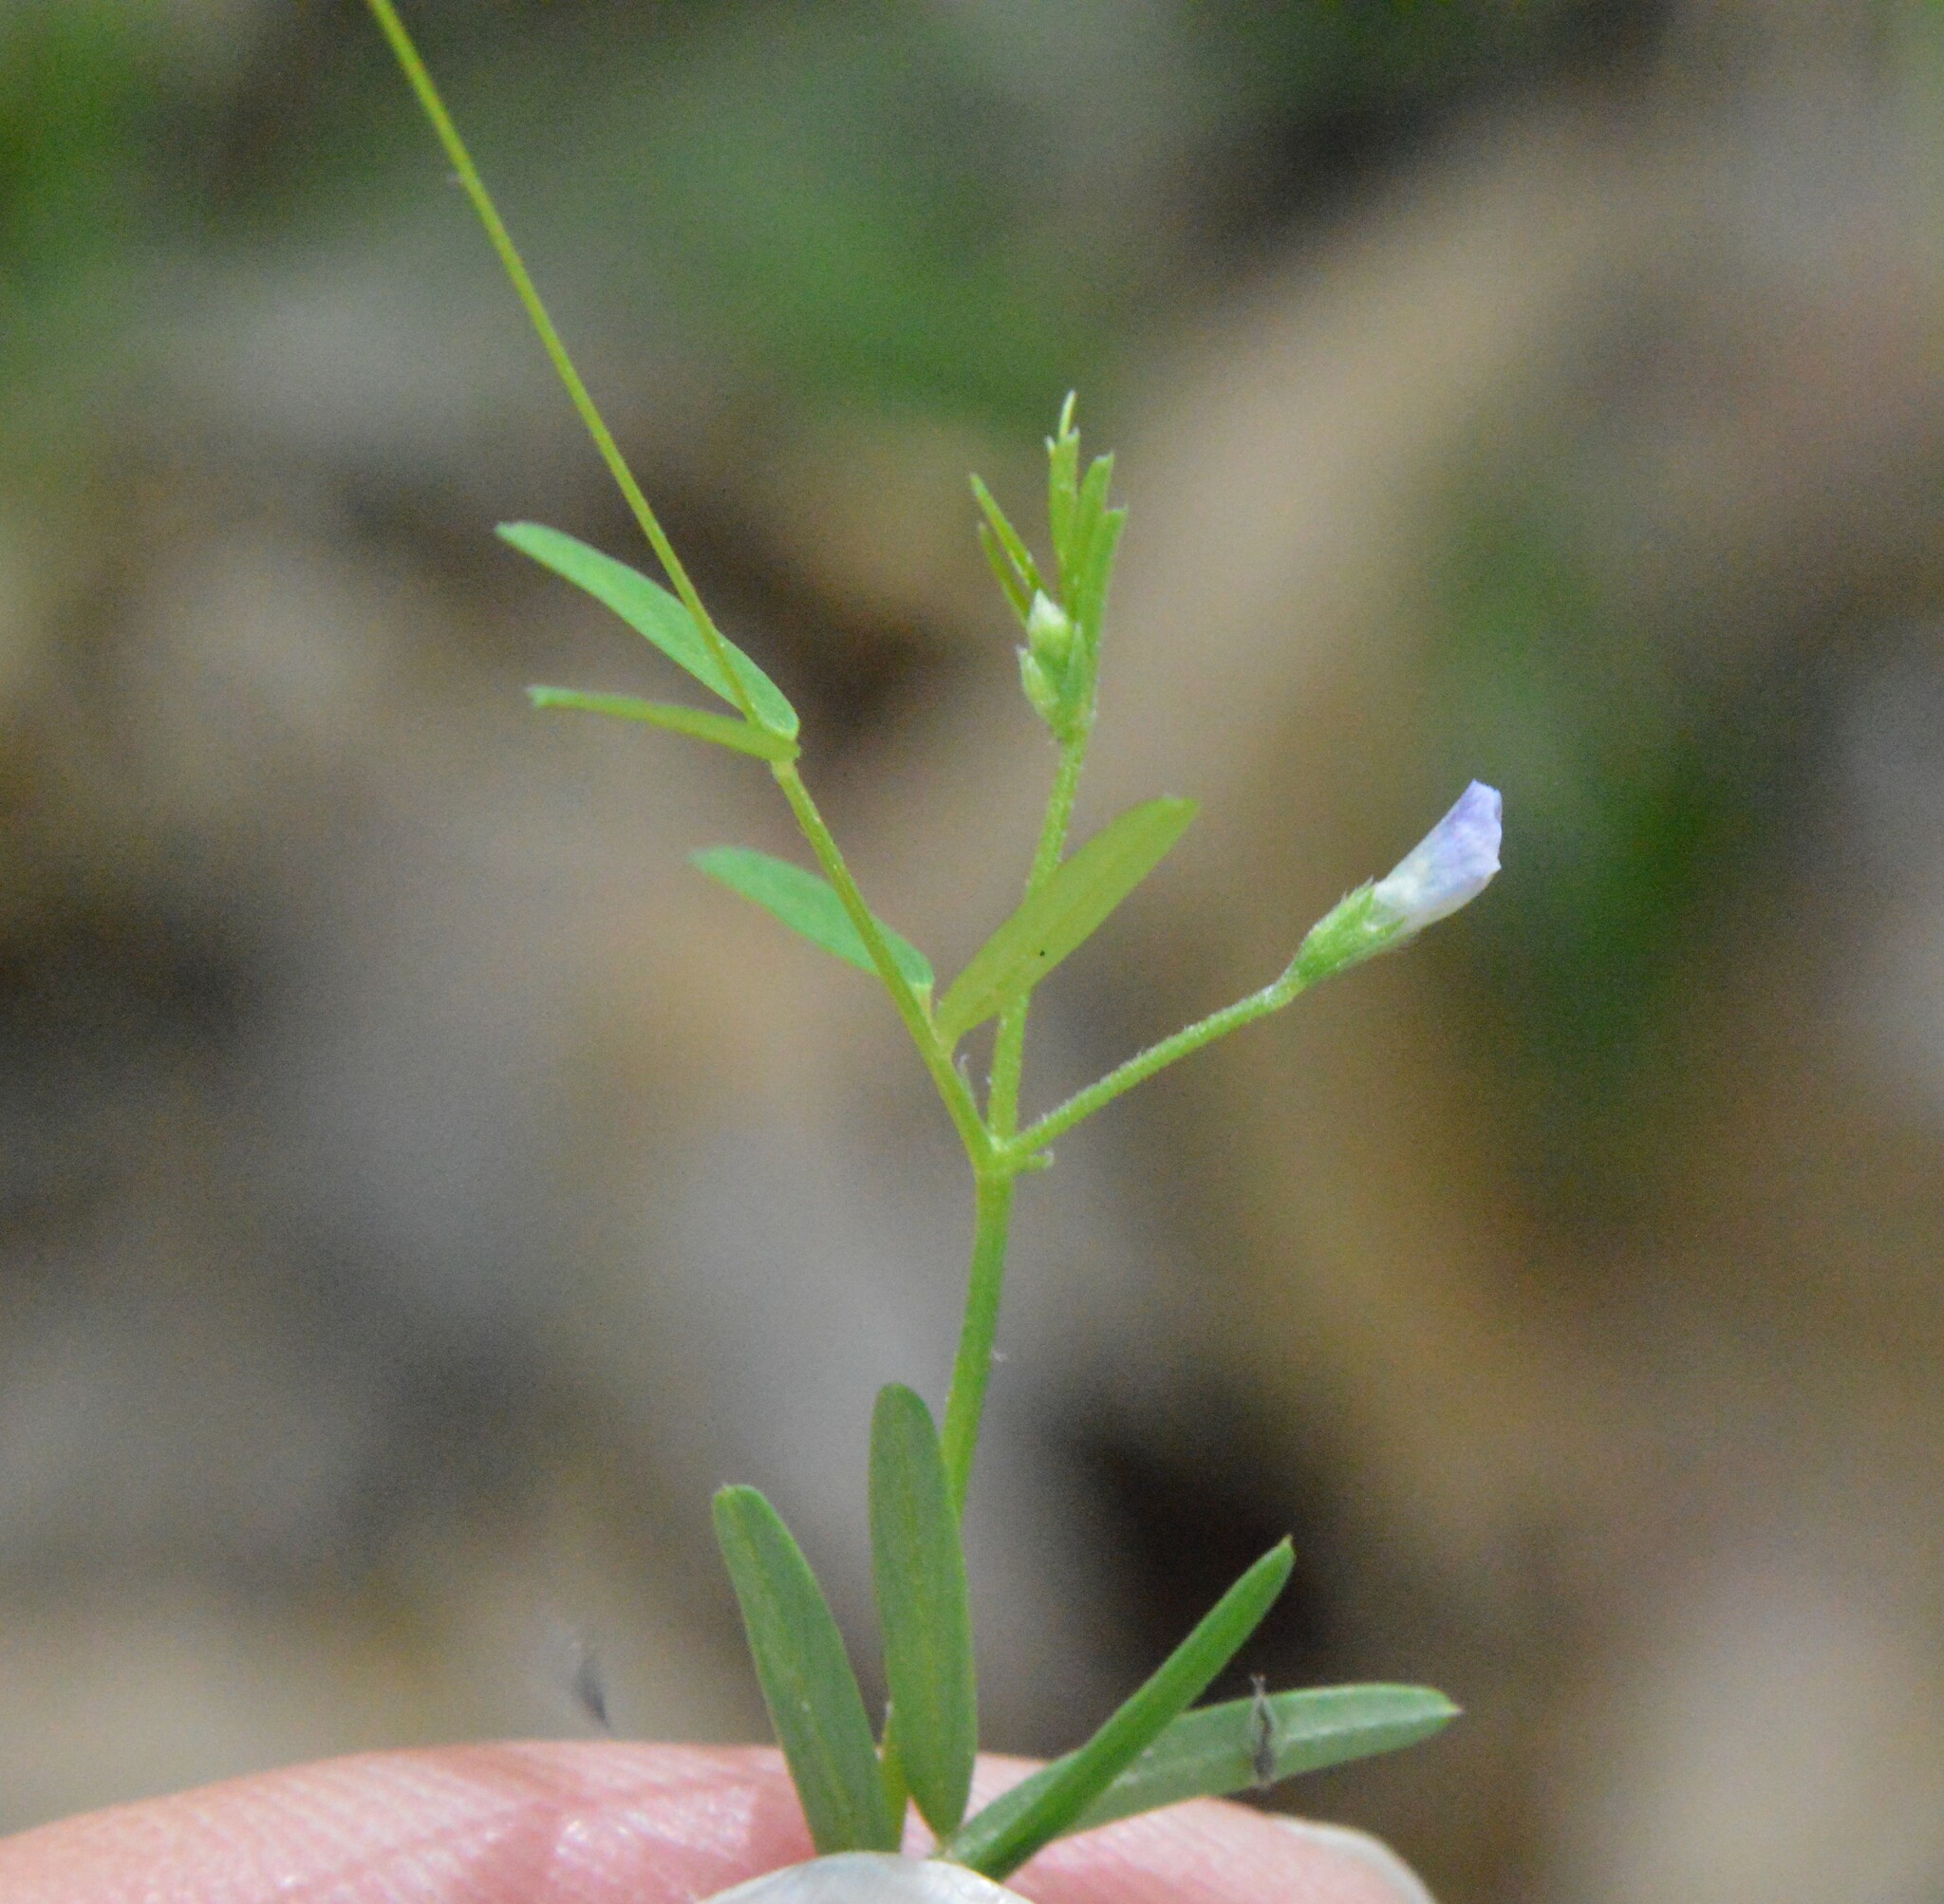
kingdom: Plantae
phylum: Tracheophyta
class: Magnoliopsida
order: Fabales
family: Fabaceae
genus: Vicia
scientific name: Vicia minutiflora
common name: Pygmy-flower vetch
